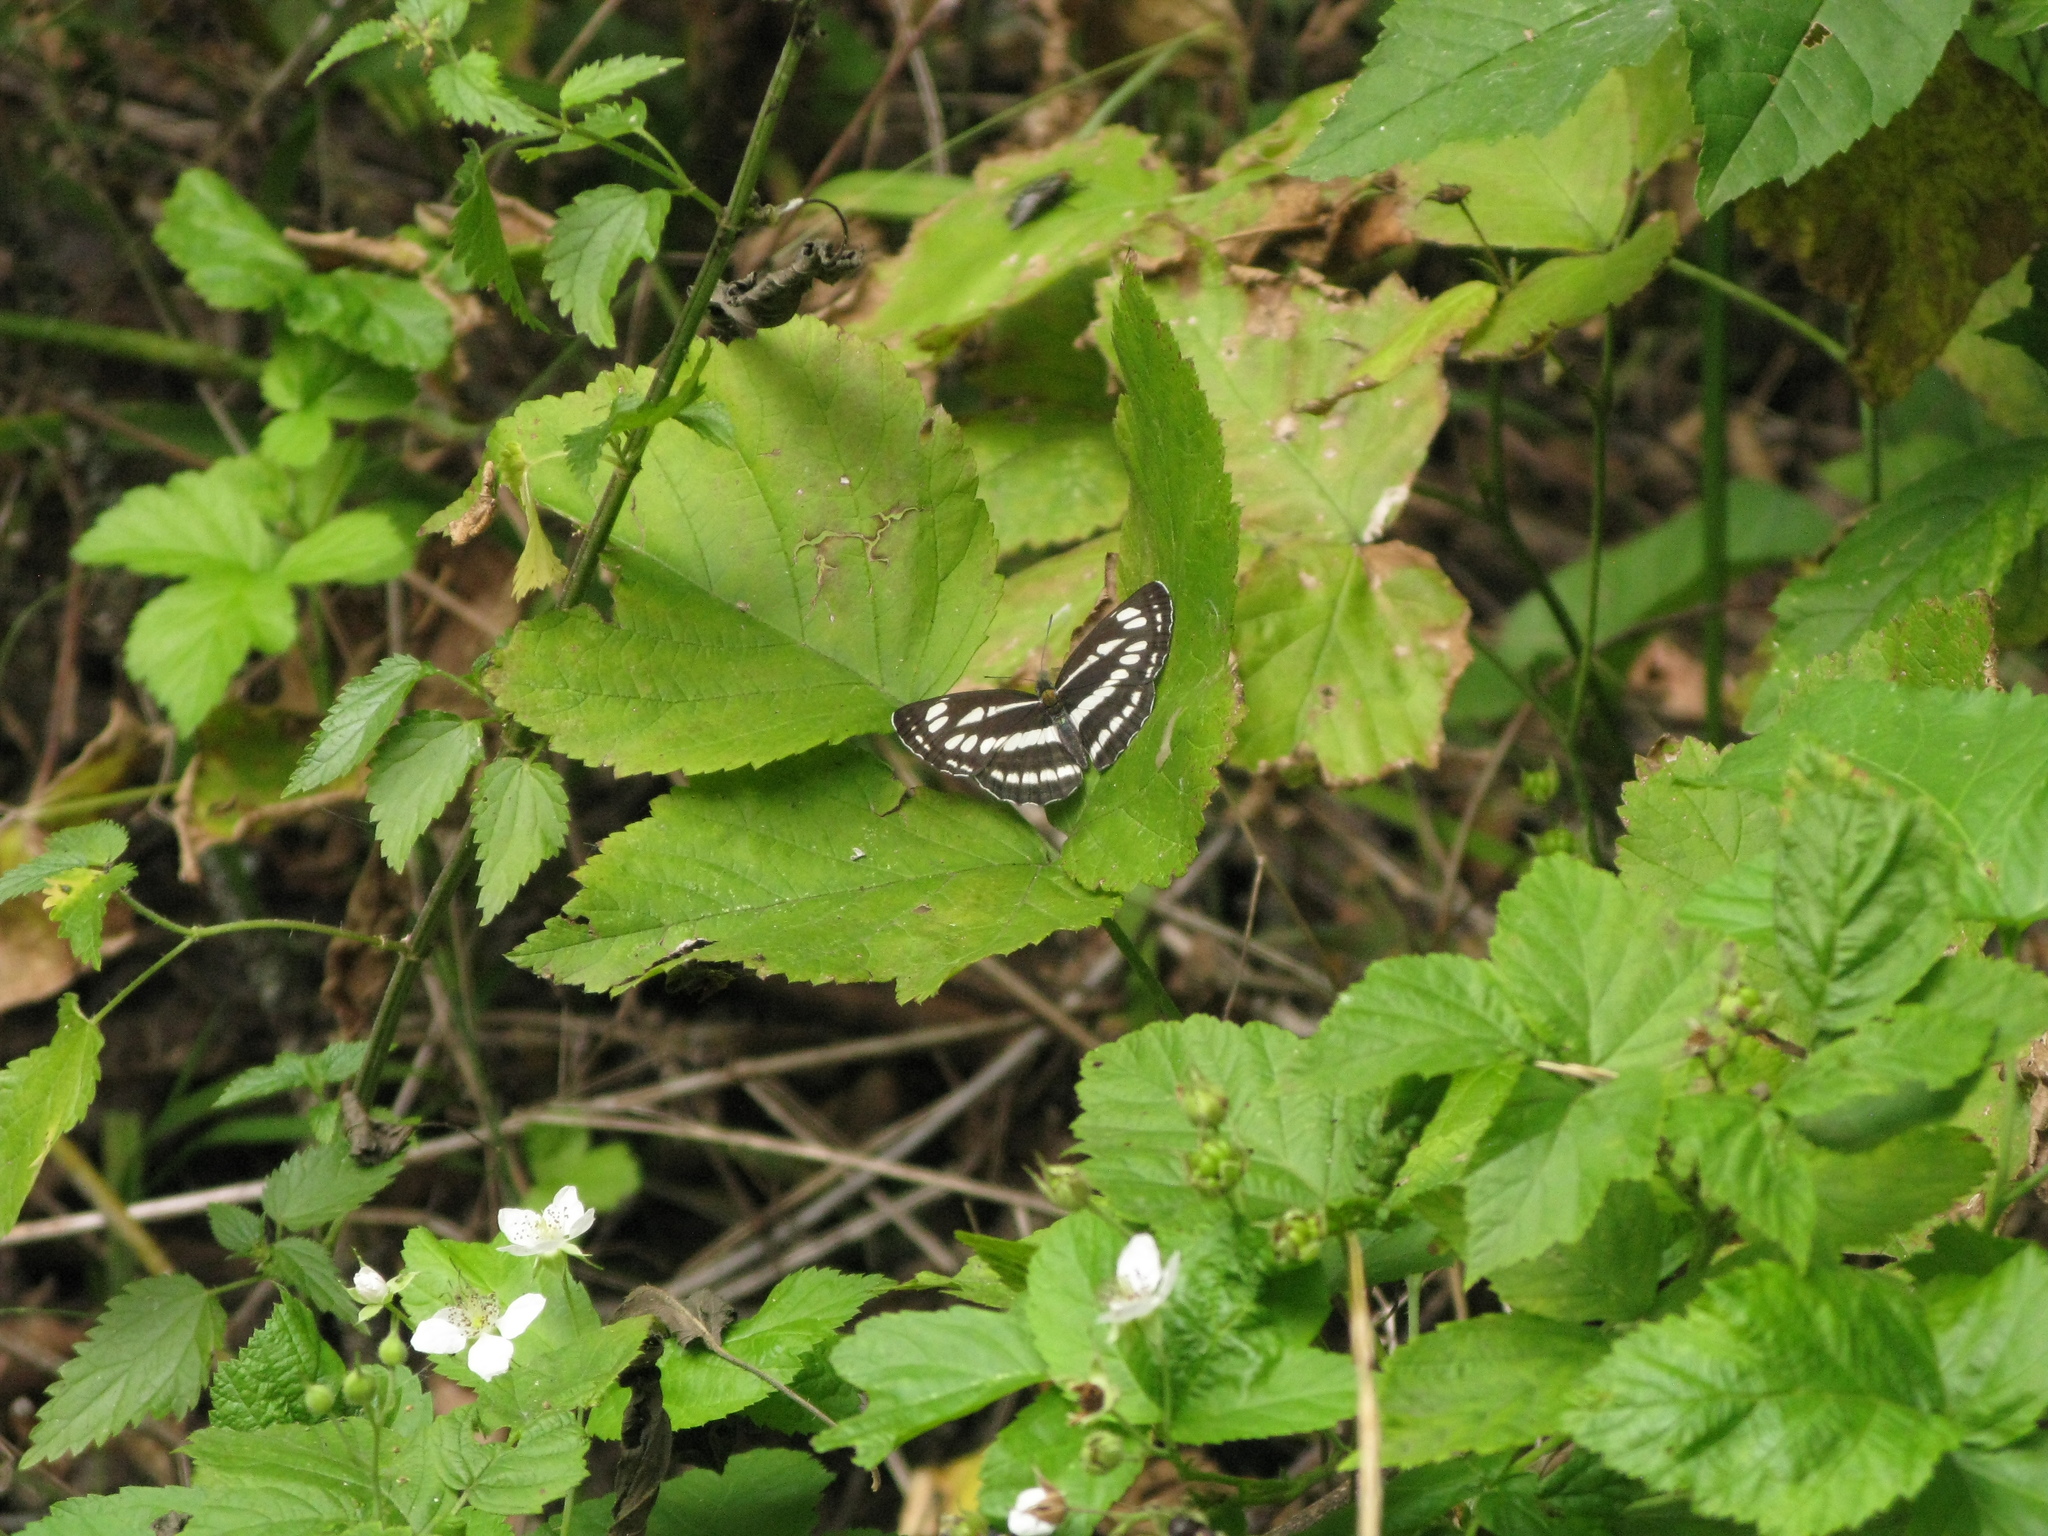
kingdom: Animalia
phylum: Arthropoda
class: Insecta
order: Lepidoptera
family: Nymphalidae
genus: Neptis
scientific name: Neptis sappho
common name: Common glider
